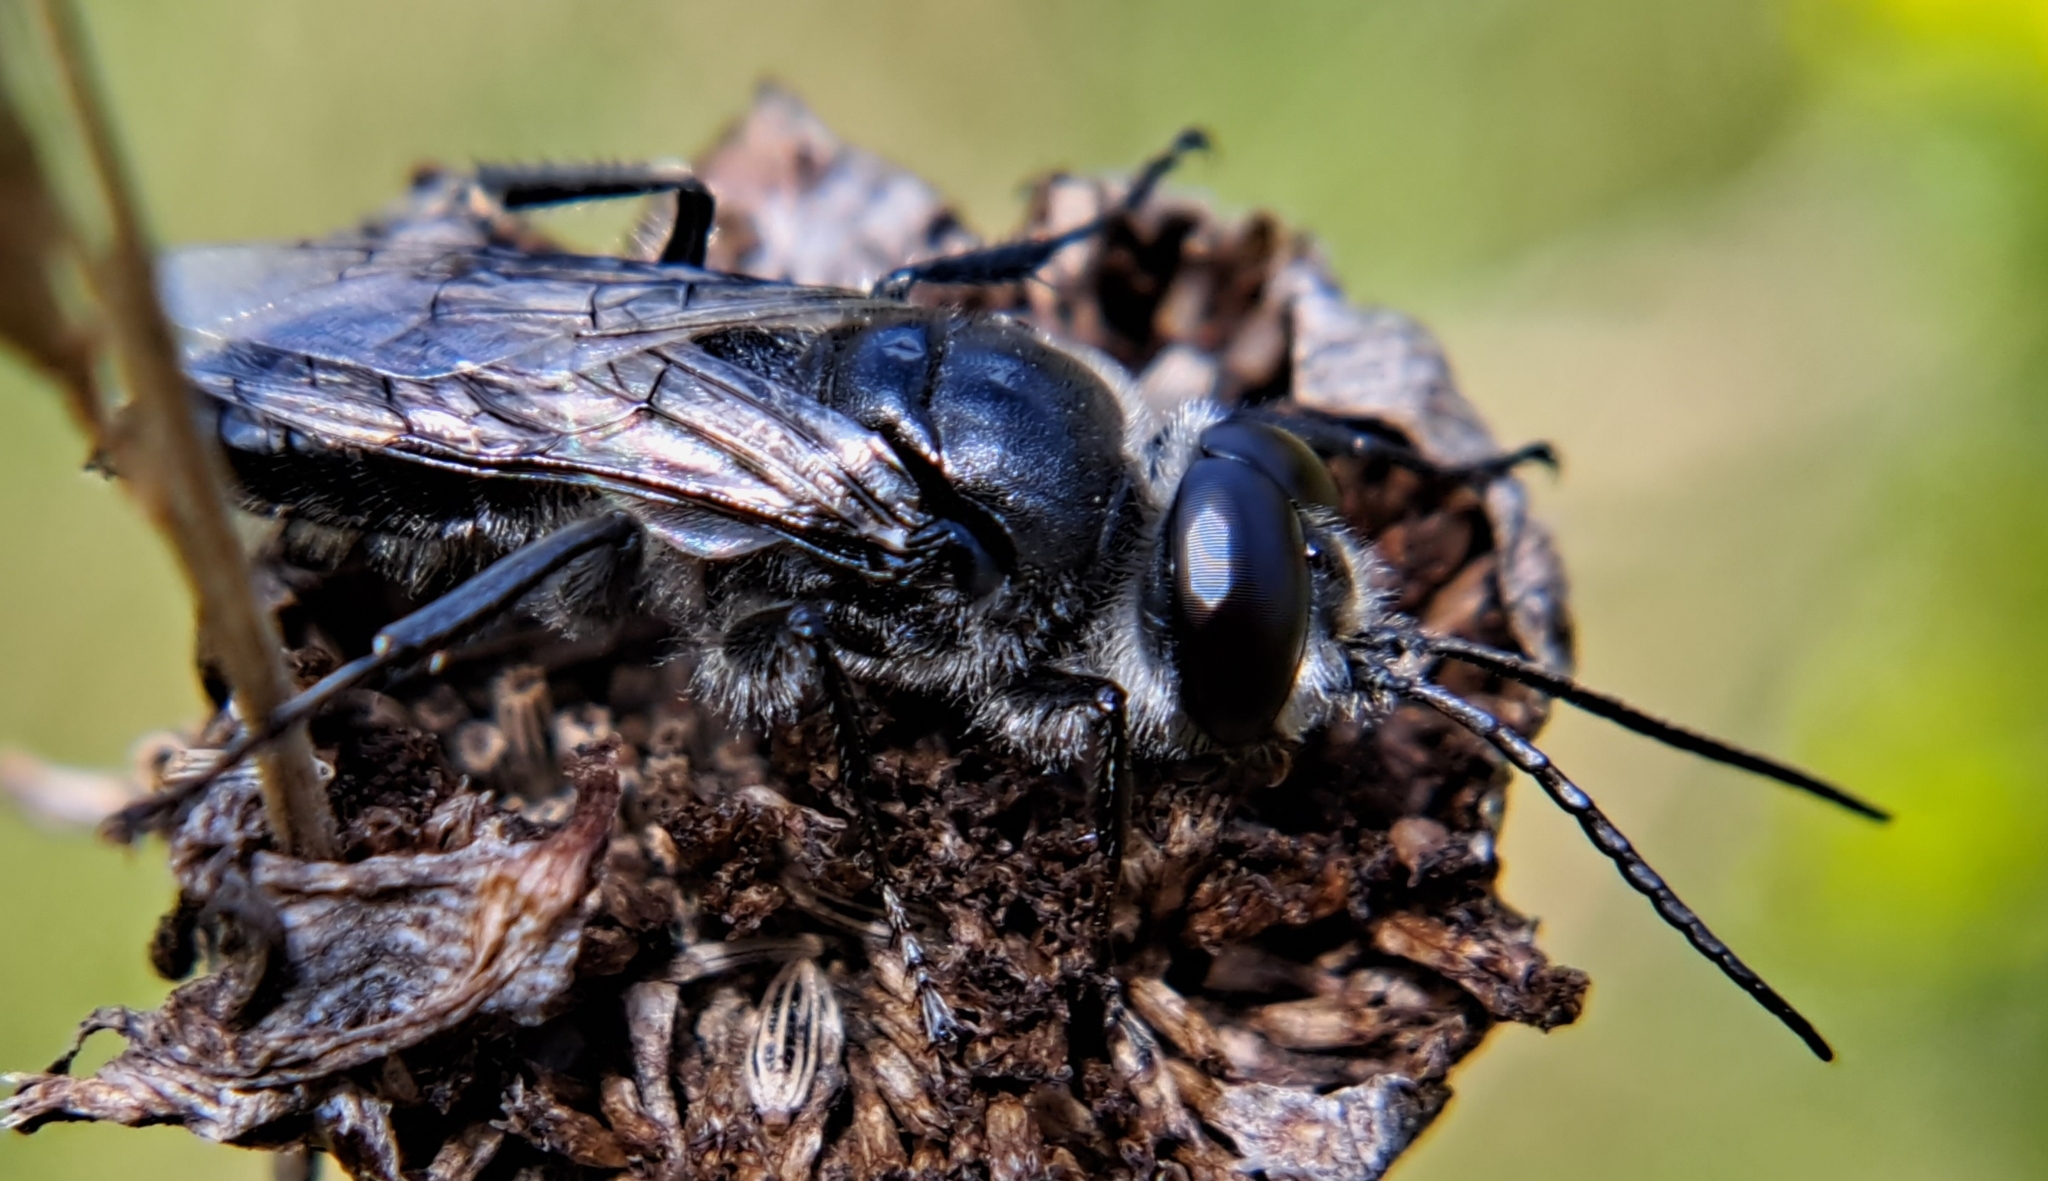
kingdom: Animalia
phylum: Arthropoda
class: Insecta
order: Hymenoptera
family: Crabronidae
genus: Astata
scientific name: Astata unicolor
